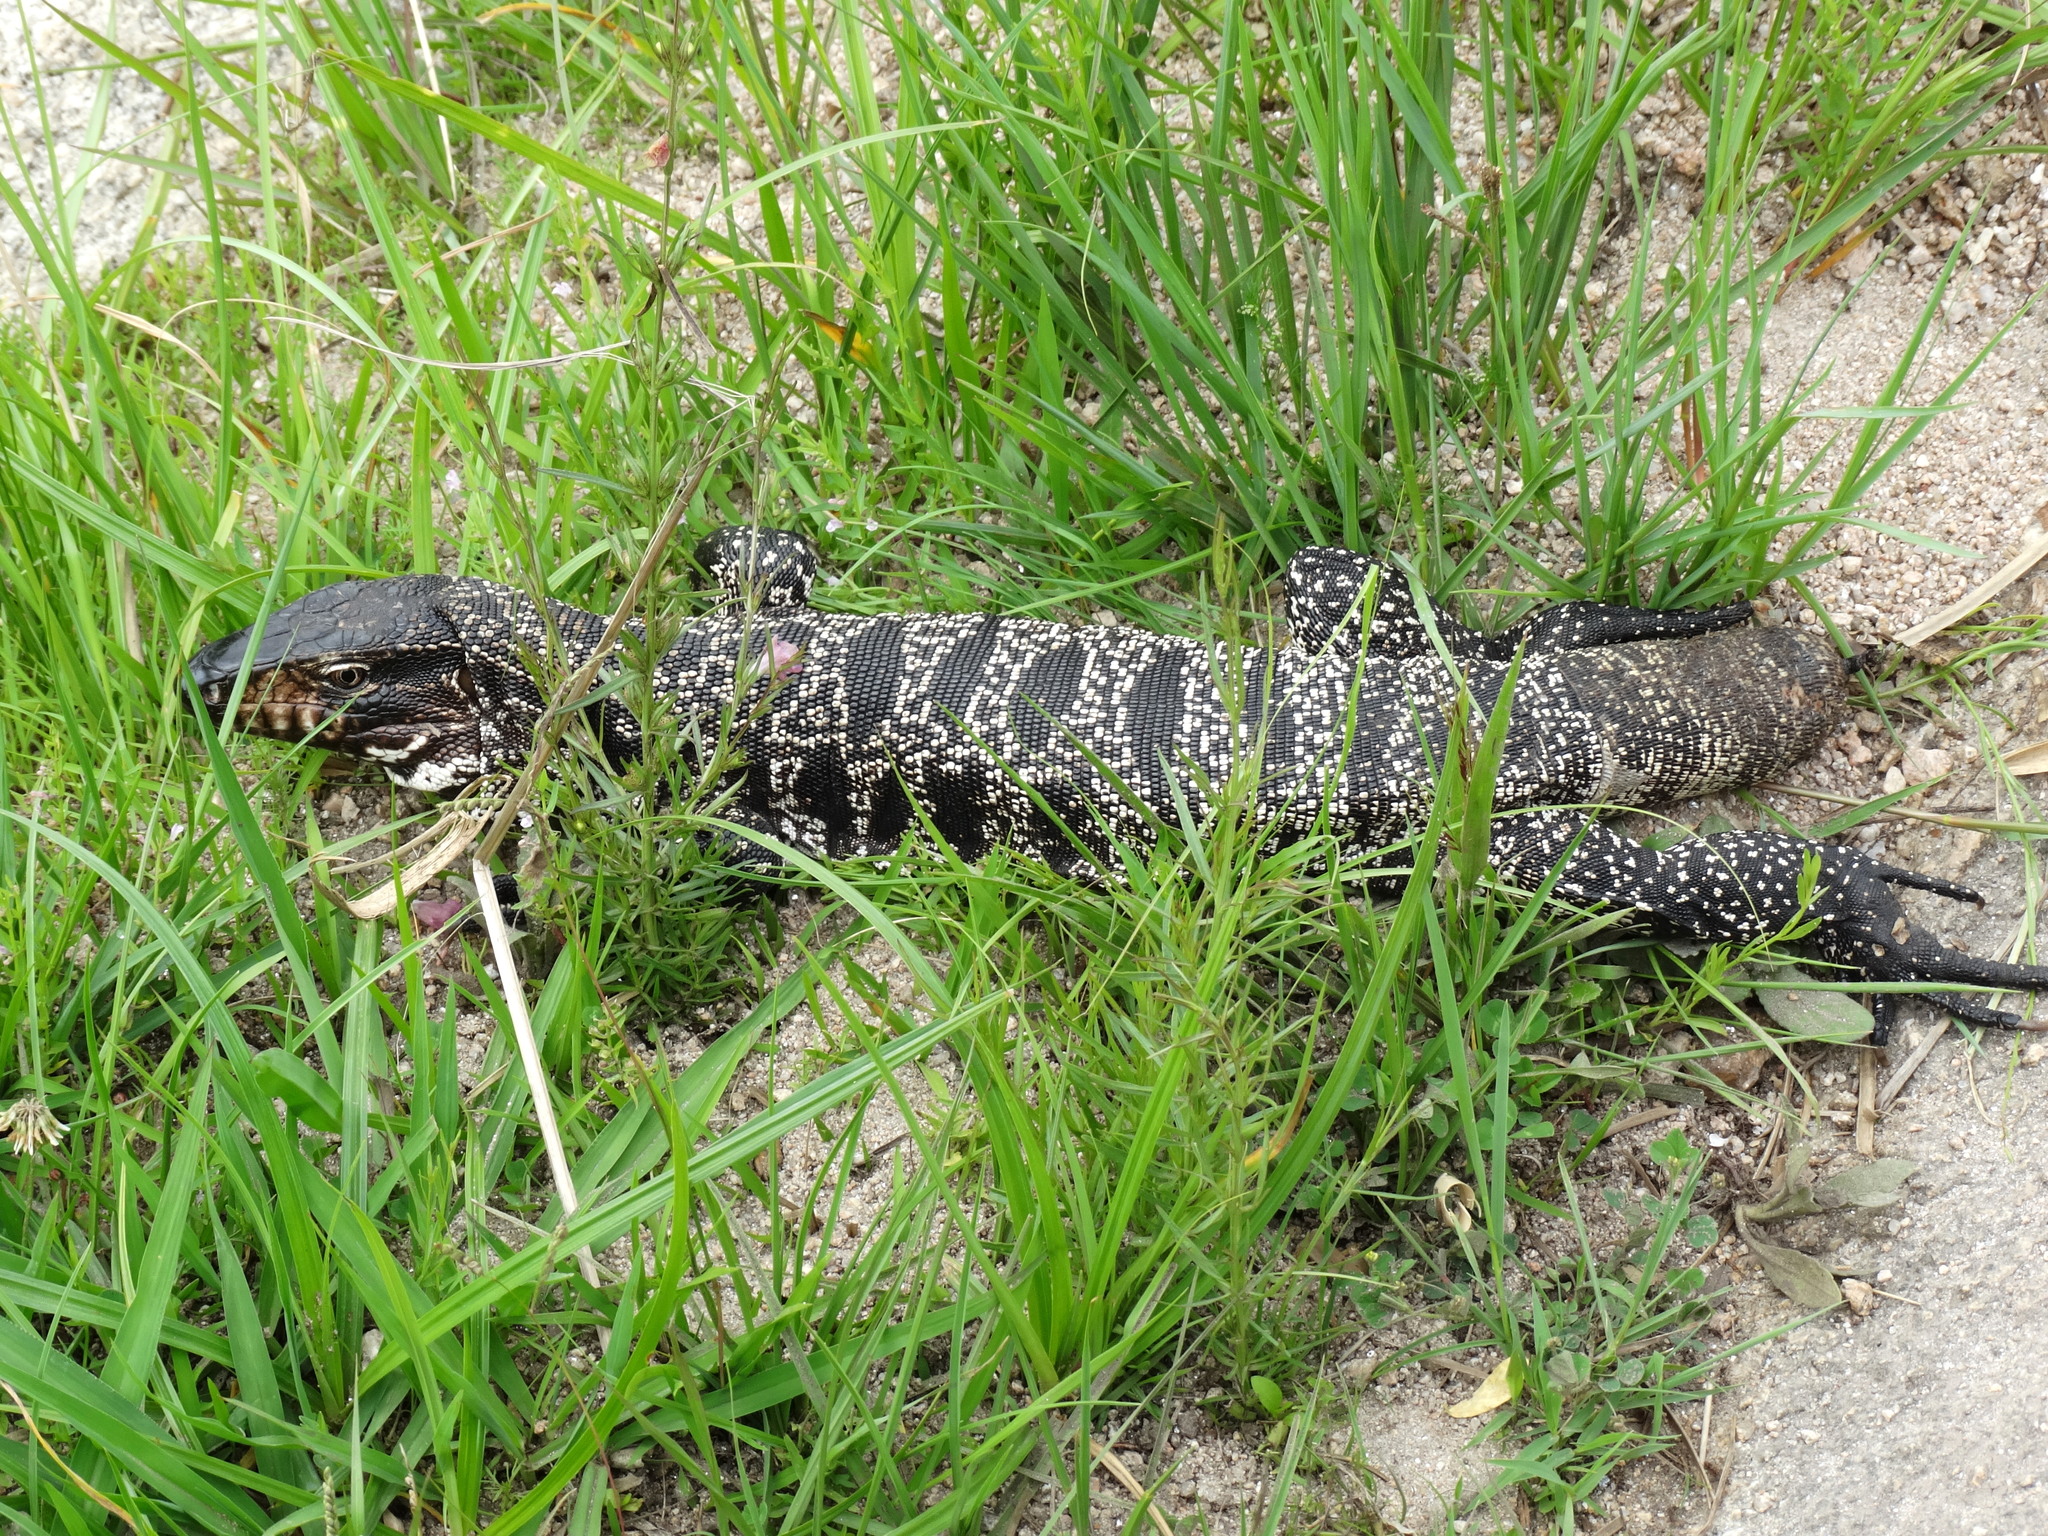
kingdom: Animalia
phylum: Chordata
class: Squamata
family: Teiidae
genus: Salvator
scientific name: Salvator merianae
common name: Argentine black and white tegu
